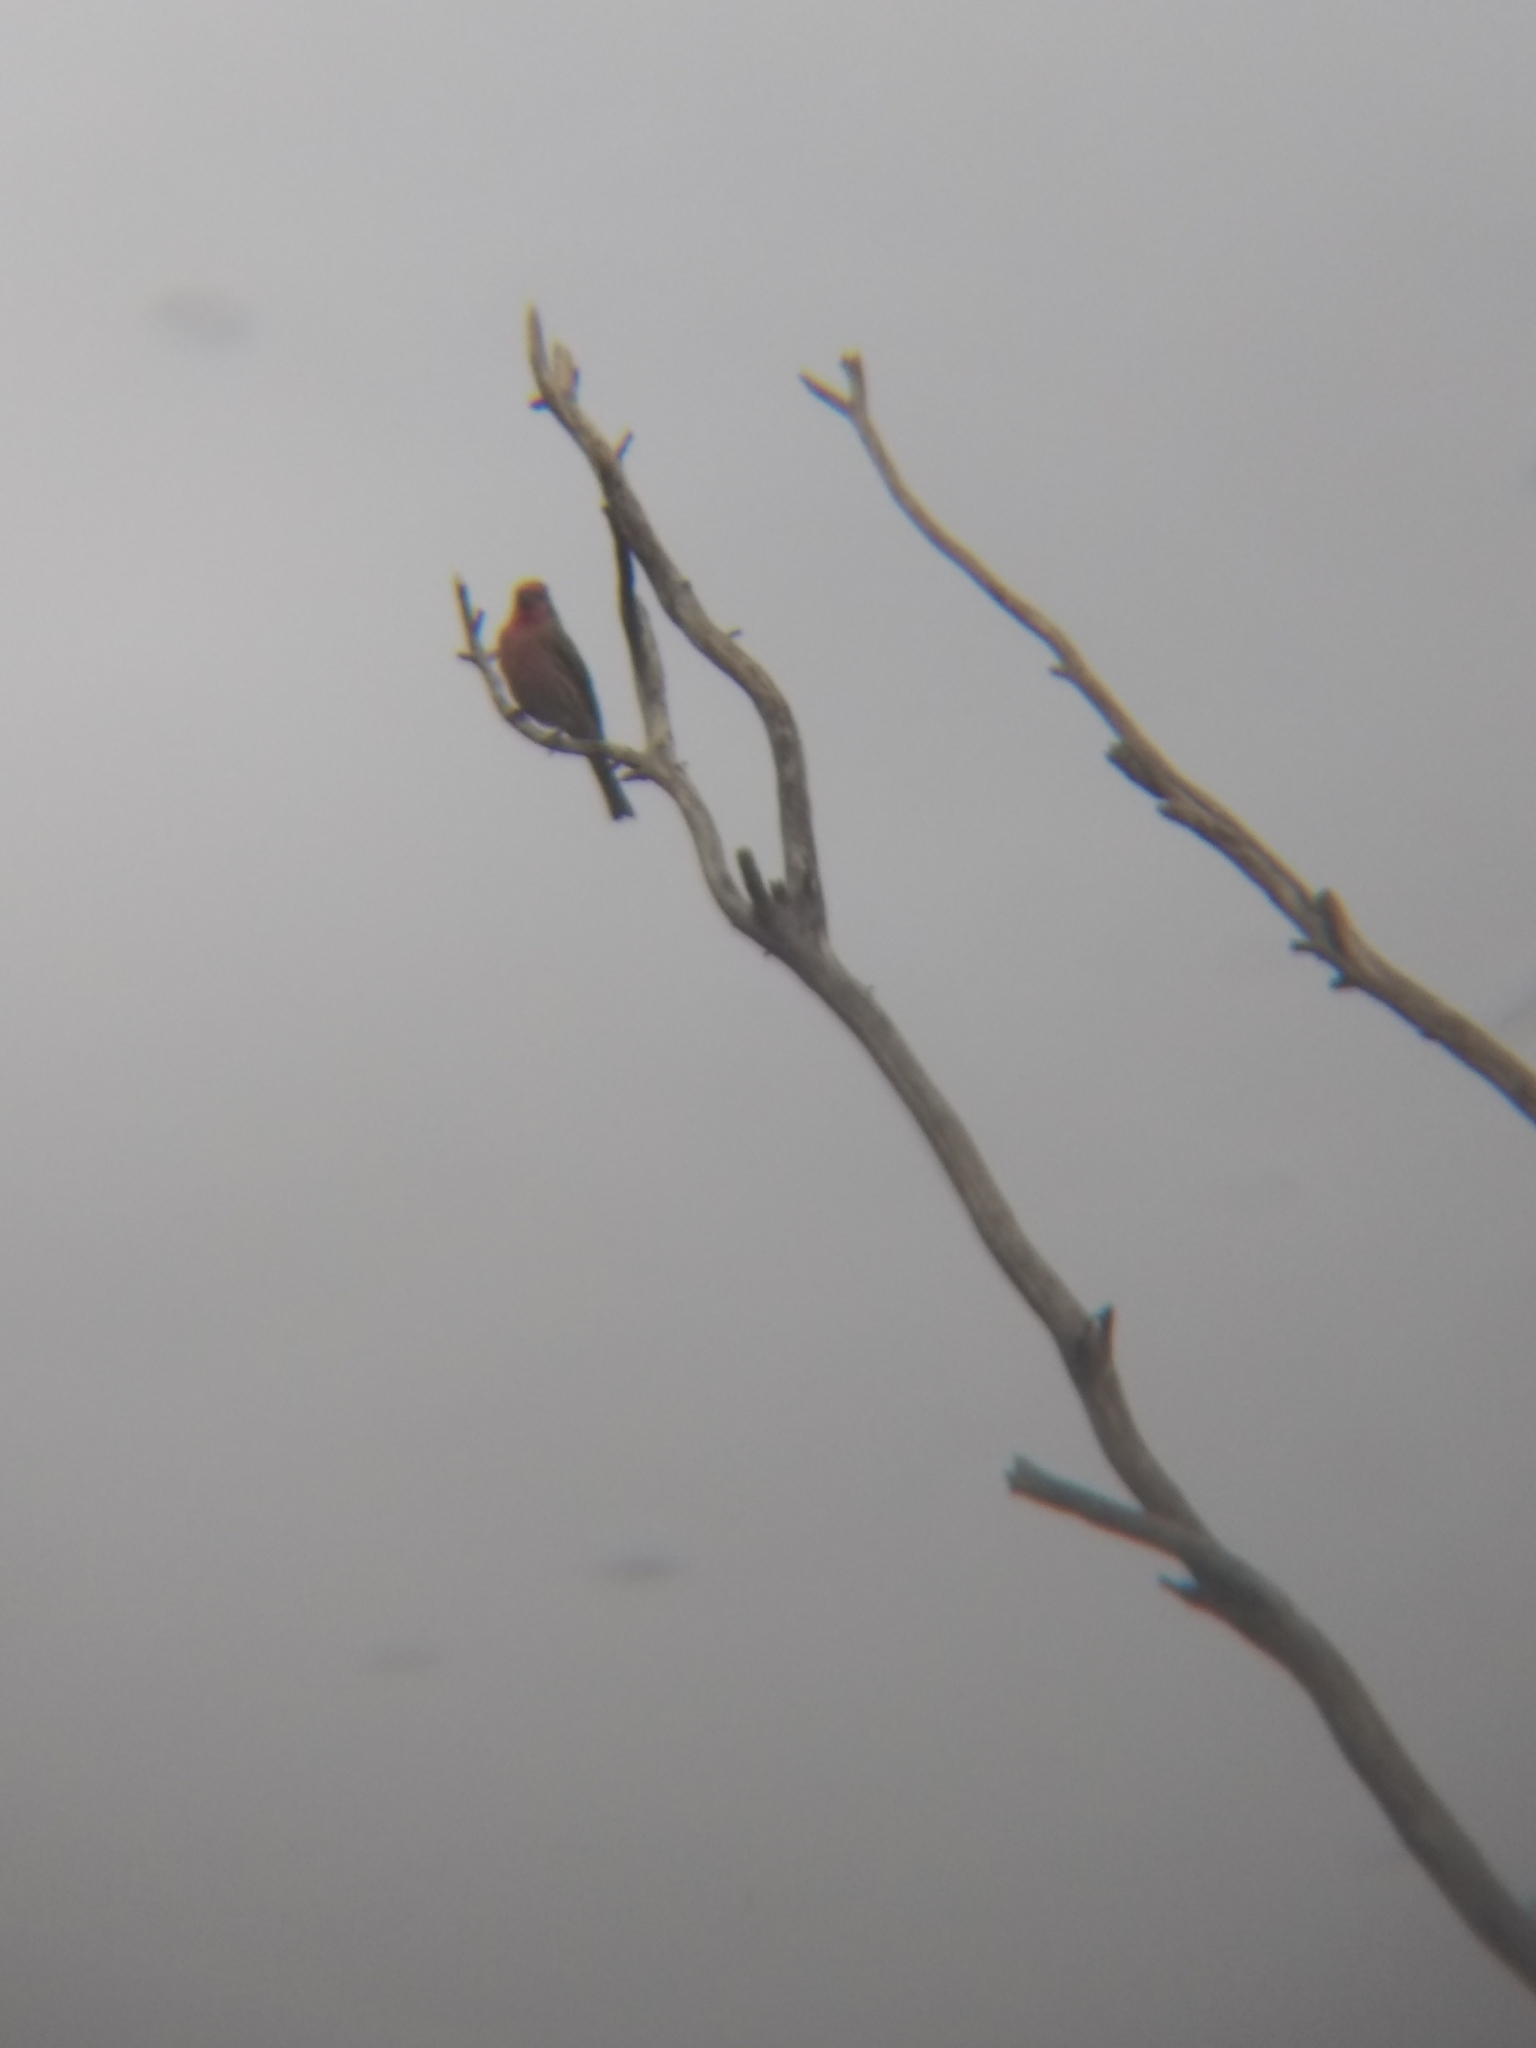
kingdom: Animalia
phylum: Chordata
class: Aves
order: Passeriformes
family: Fringillidae
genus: Haemorhous
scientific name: Haemorhous mexicanus
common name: House finch
